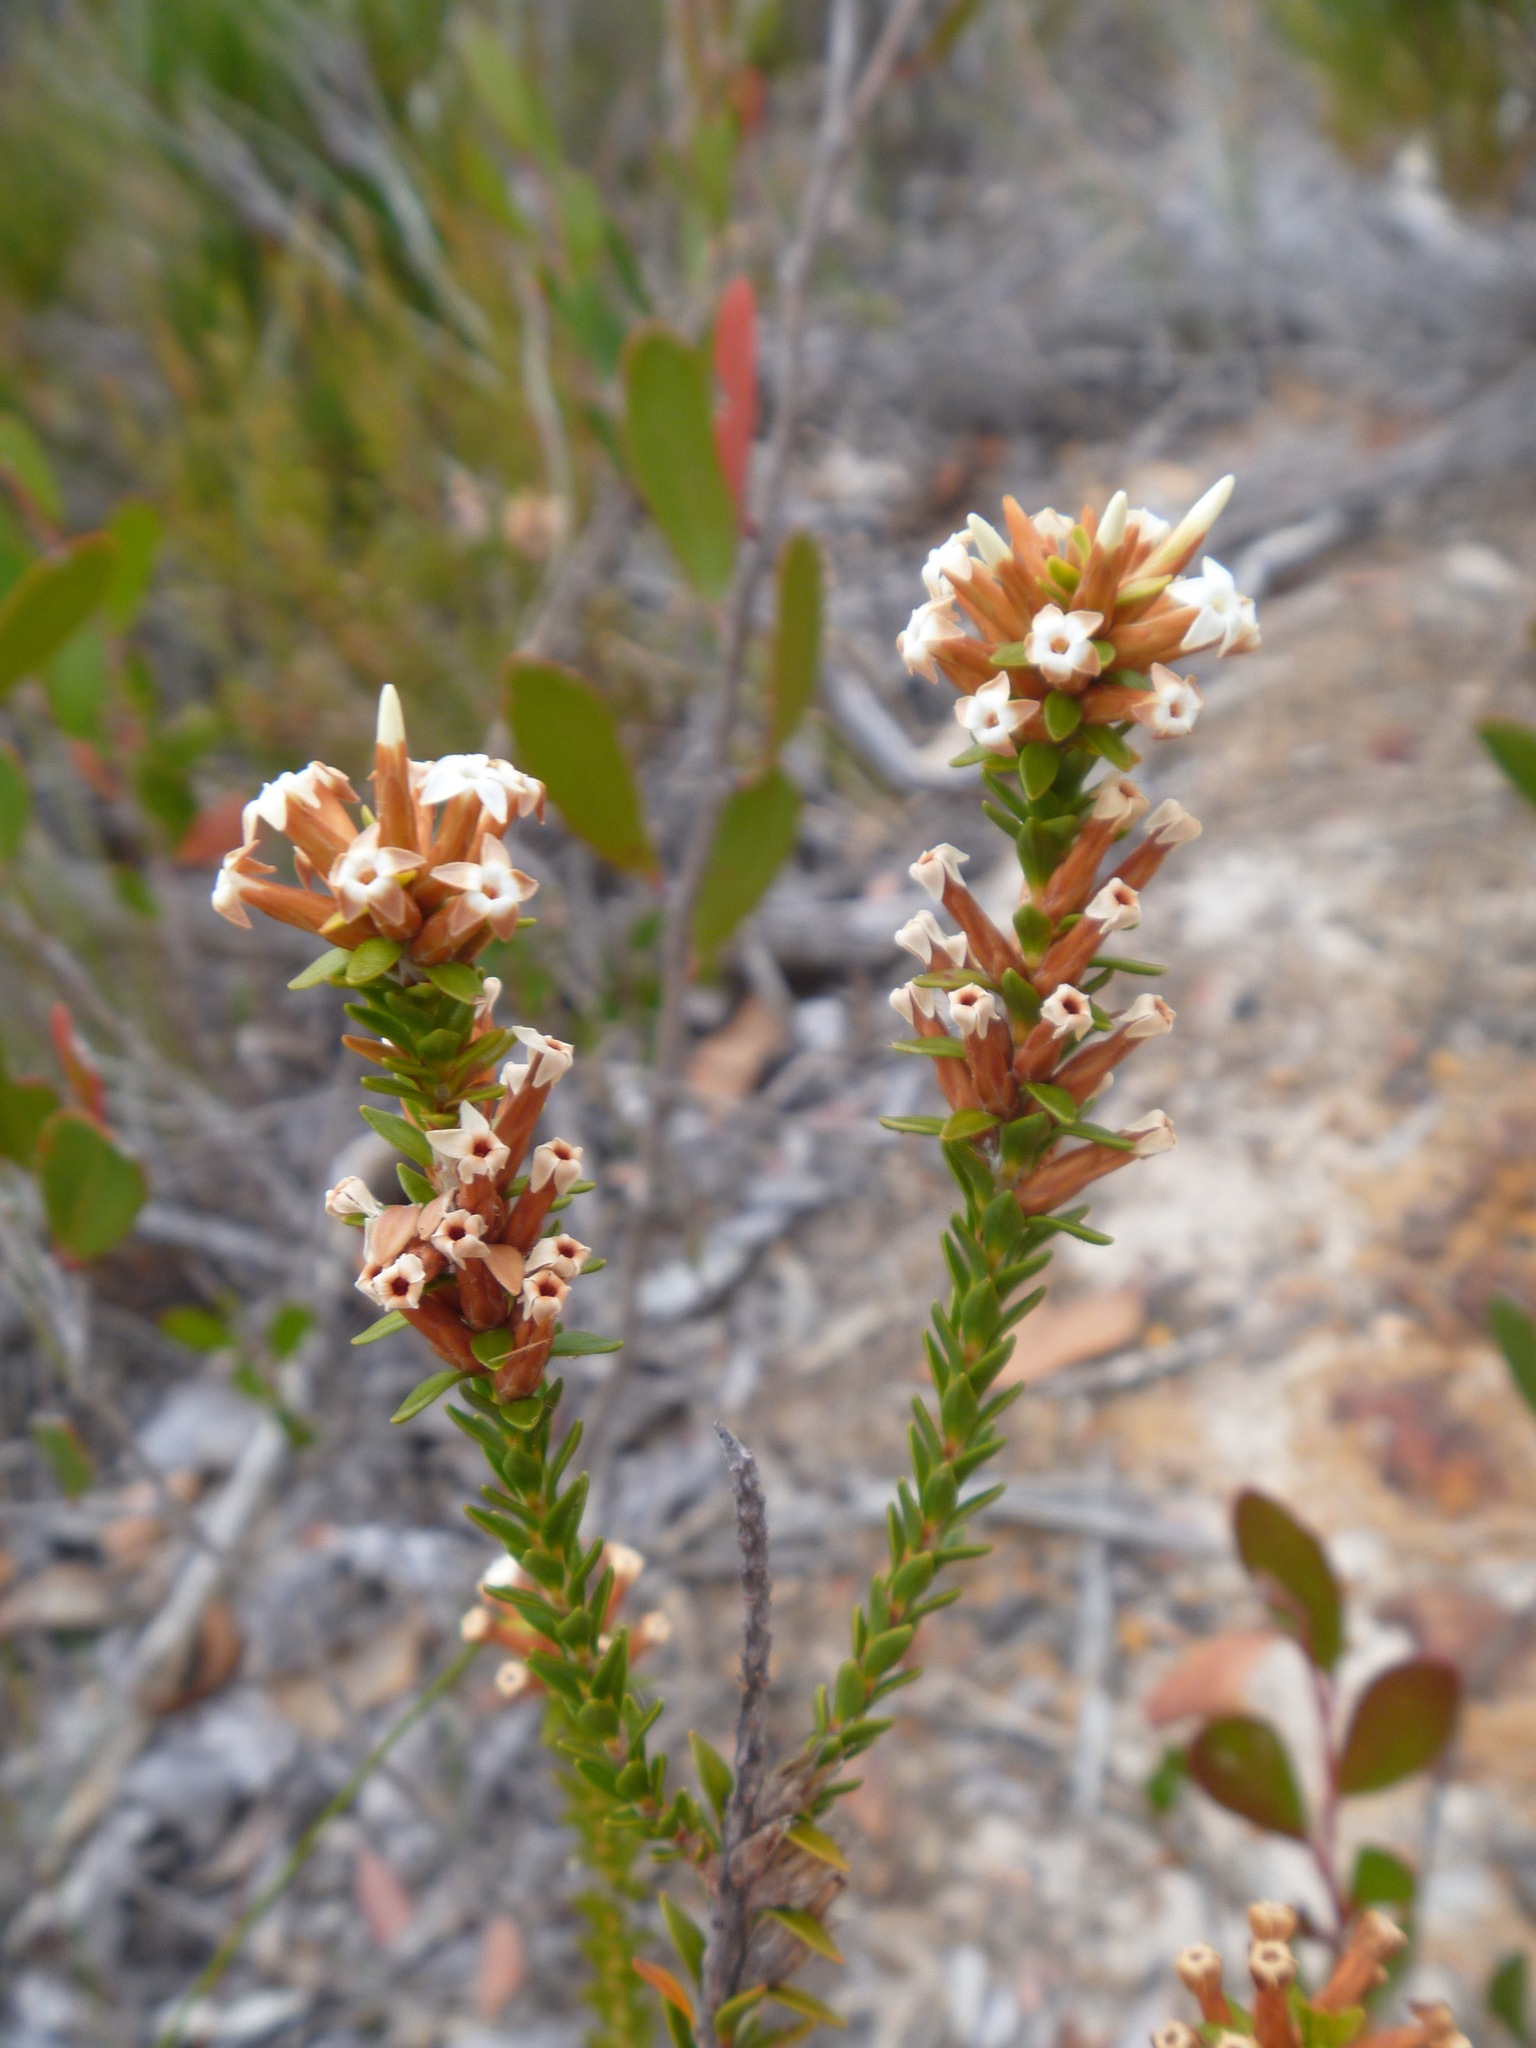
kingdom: Plantae
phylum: Tracheophyta
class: Magnoliopsida
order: Ericales
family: Ericaceae
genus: Lysinema
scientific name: Lysinema ciliatum
